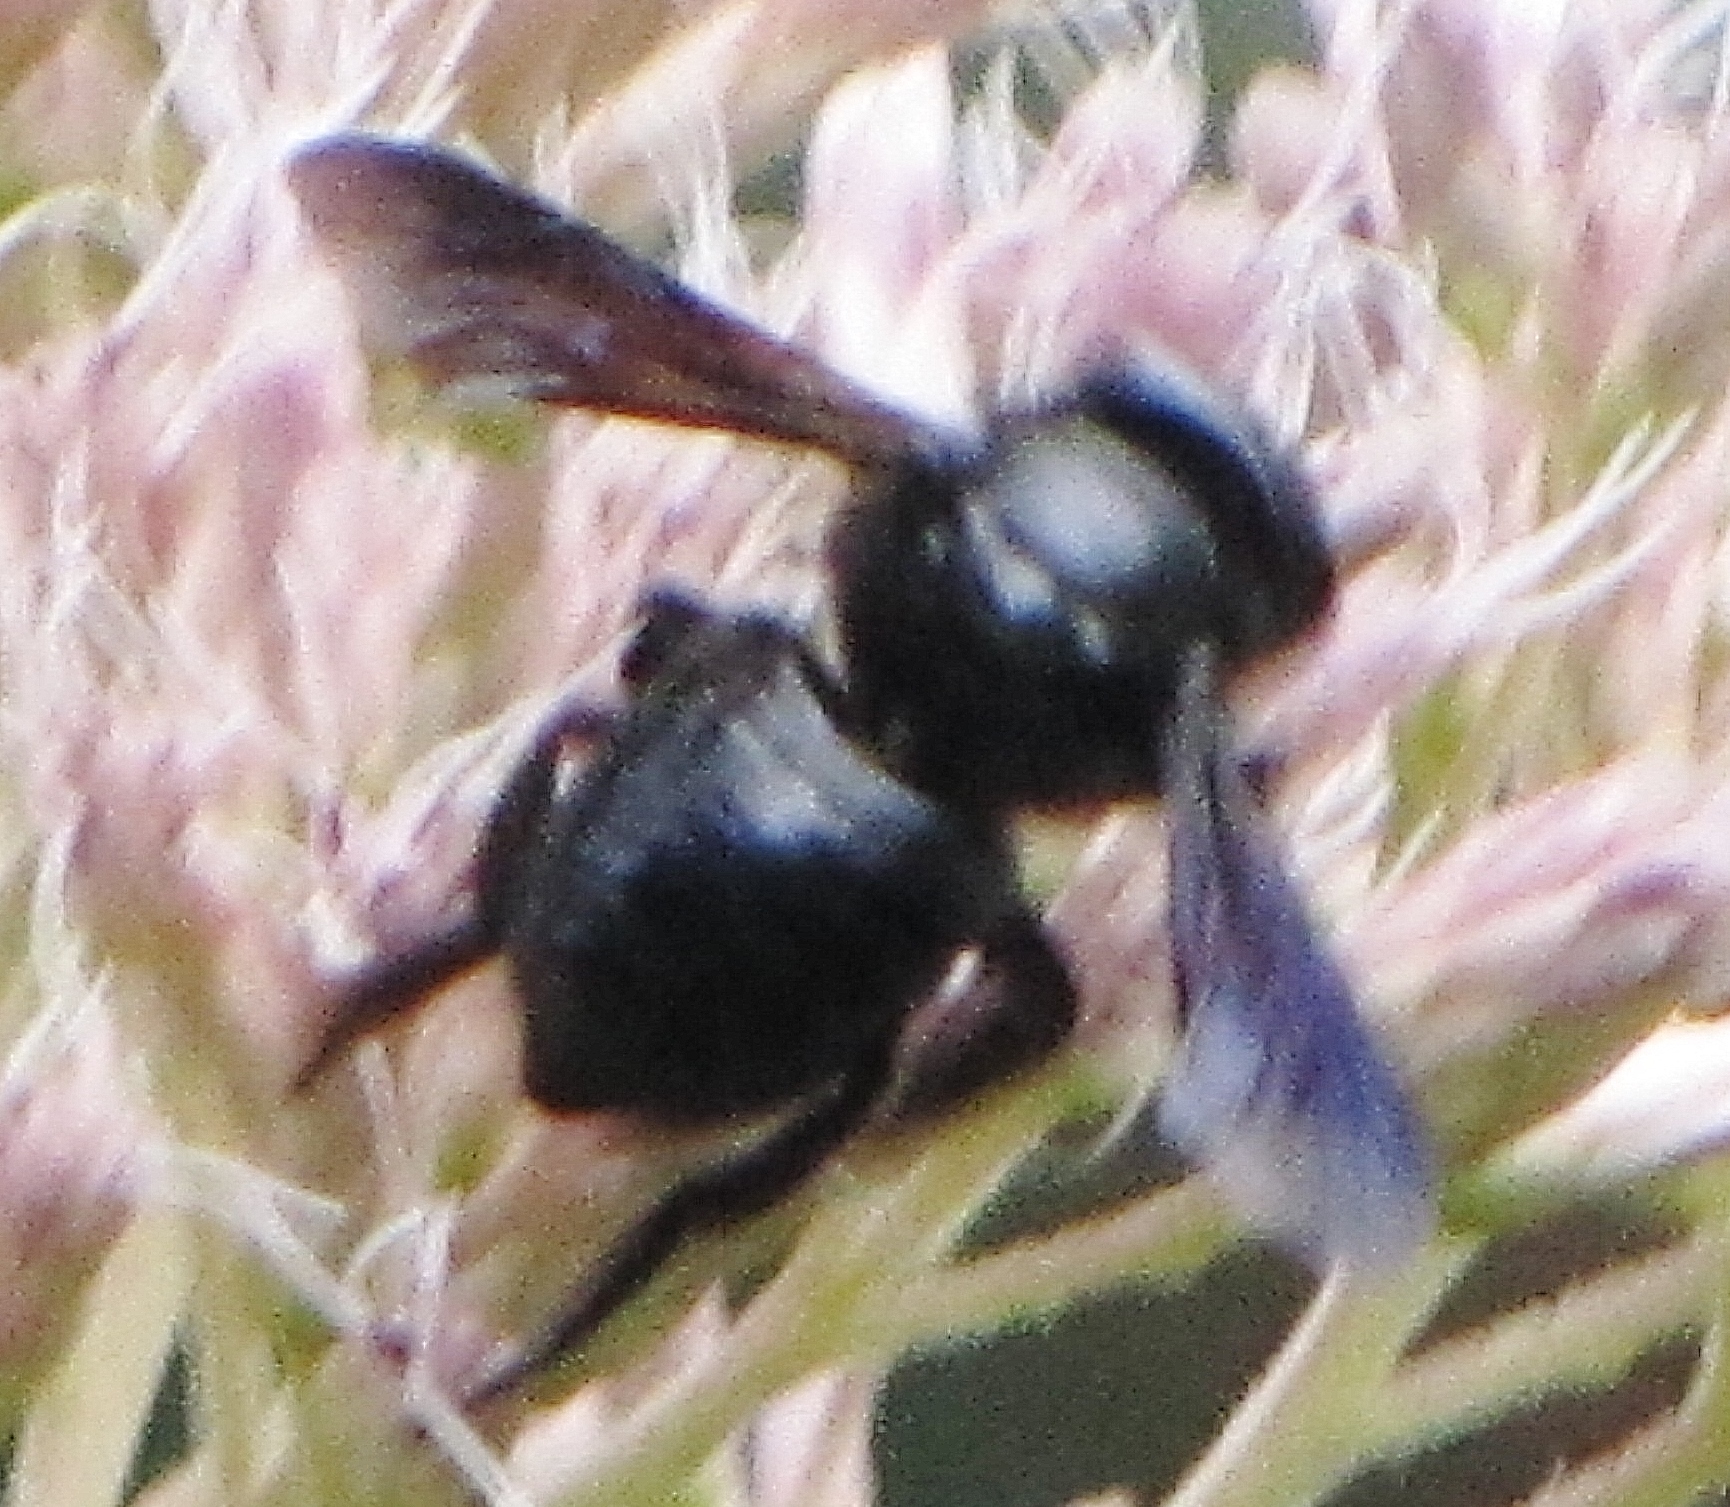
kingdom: Animalia
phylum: Arthropoda
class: Insecta
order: Hymenoptera
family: Megachilidae
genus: Megachile
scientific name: Megachile xylocopoides
